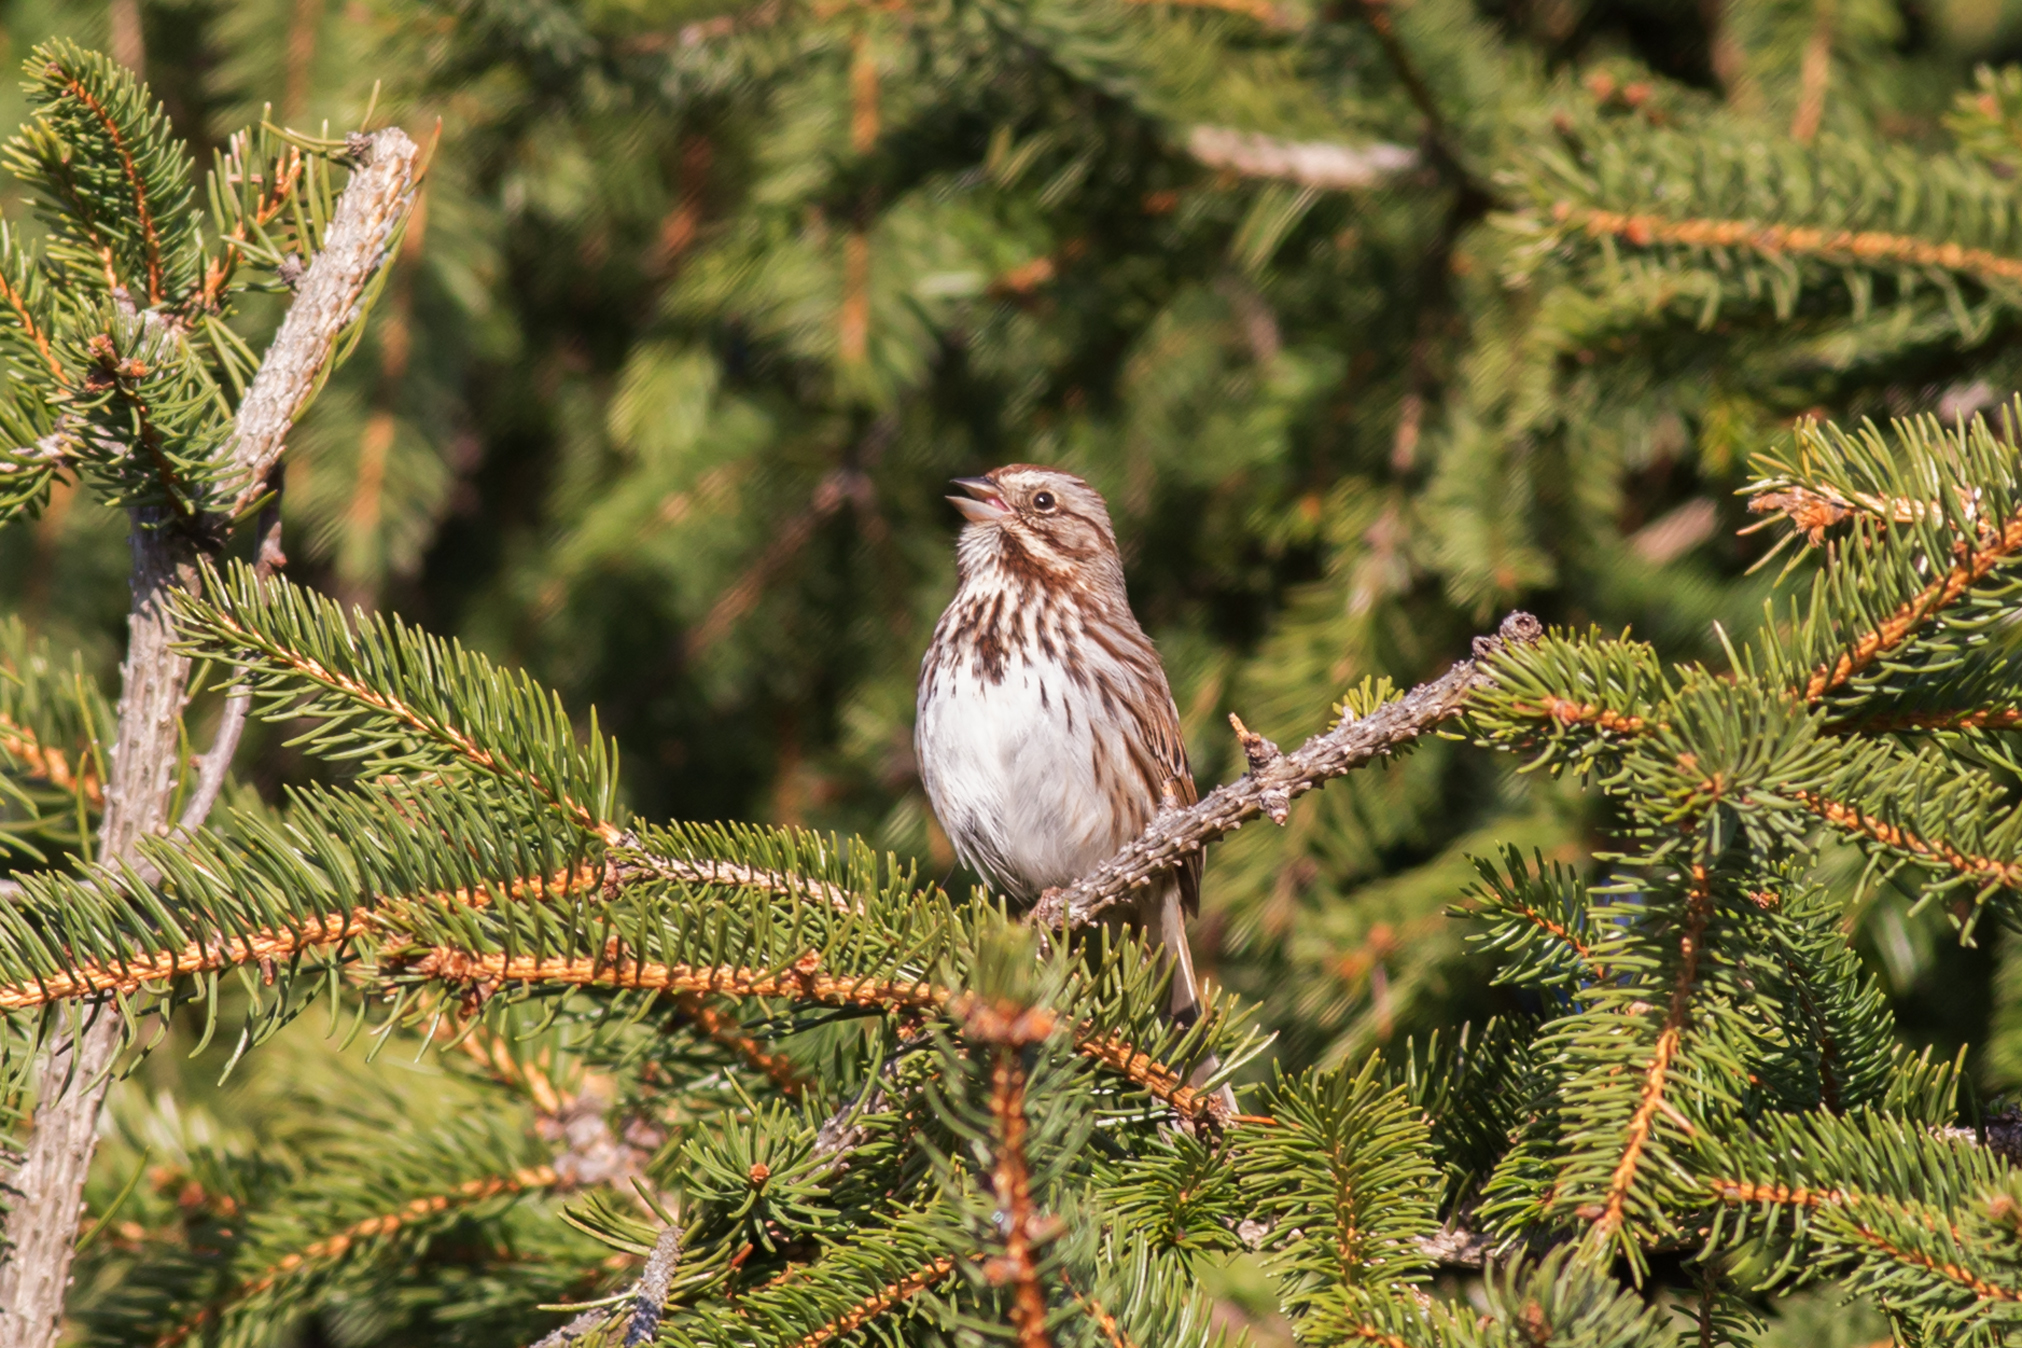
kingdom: Animalia
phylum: Chordata
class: Aves
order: Passeriformes
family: Passerellidae
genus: Melospiza
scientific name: Melospiza melodia
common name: Song sparrow
